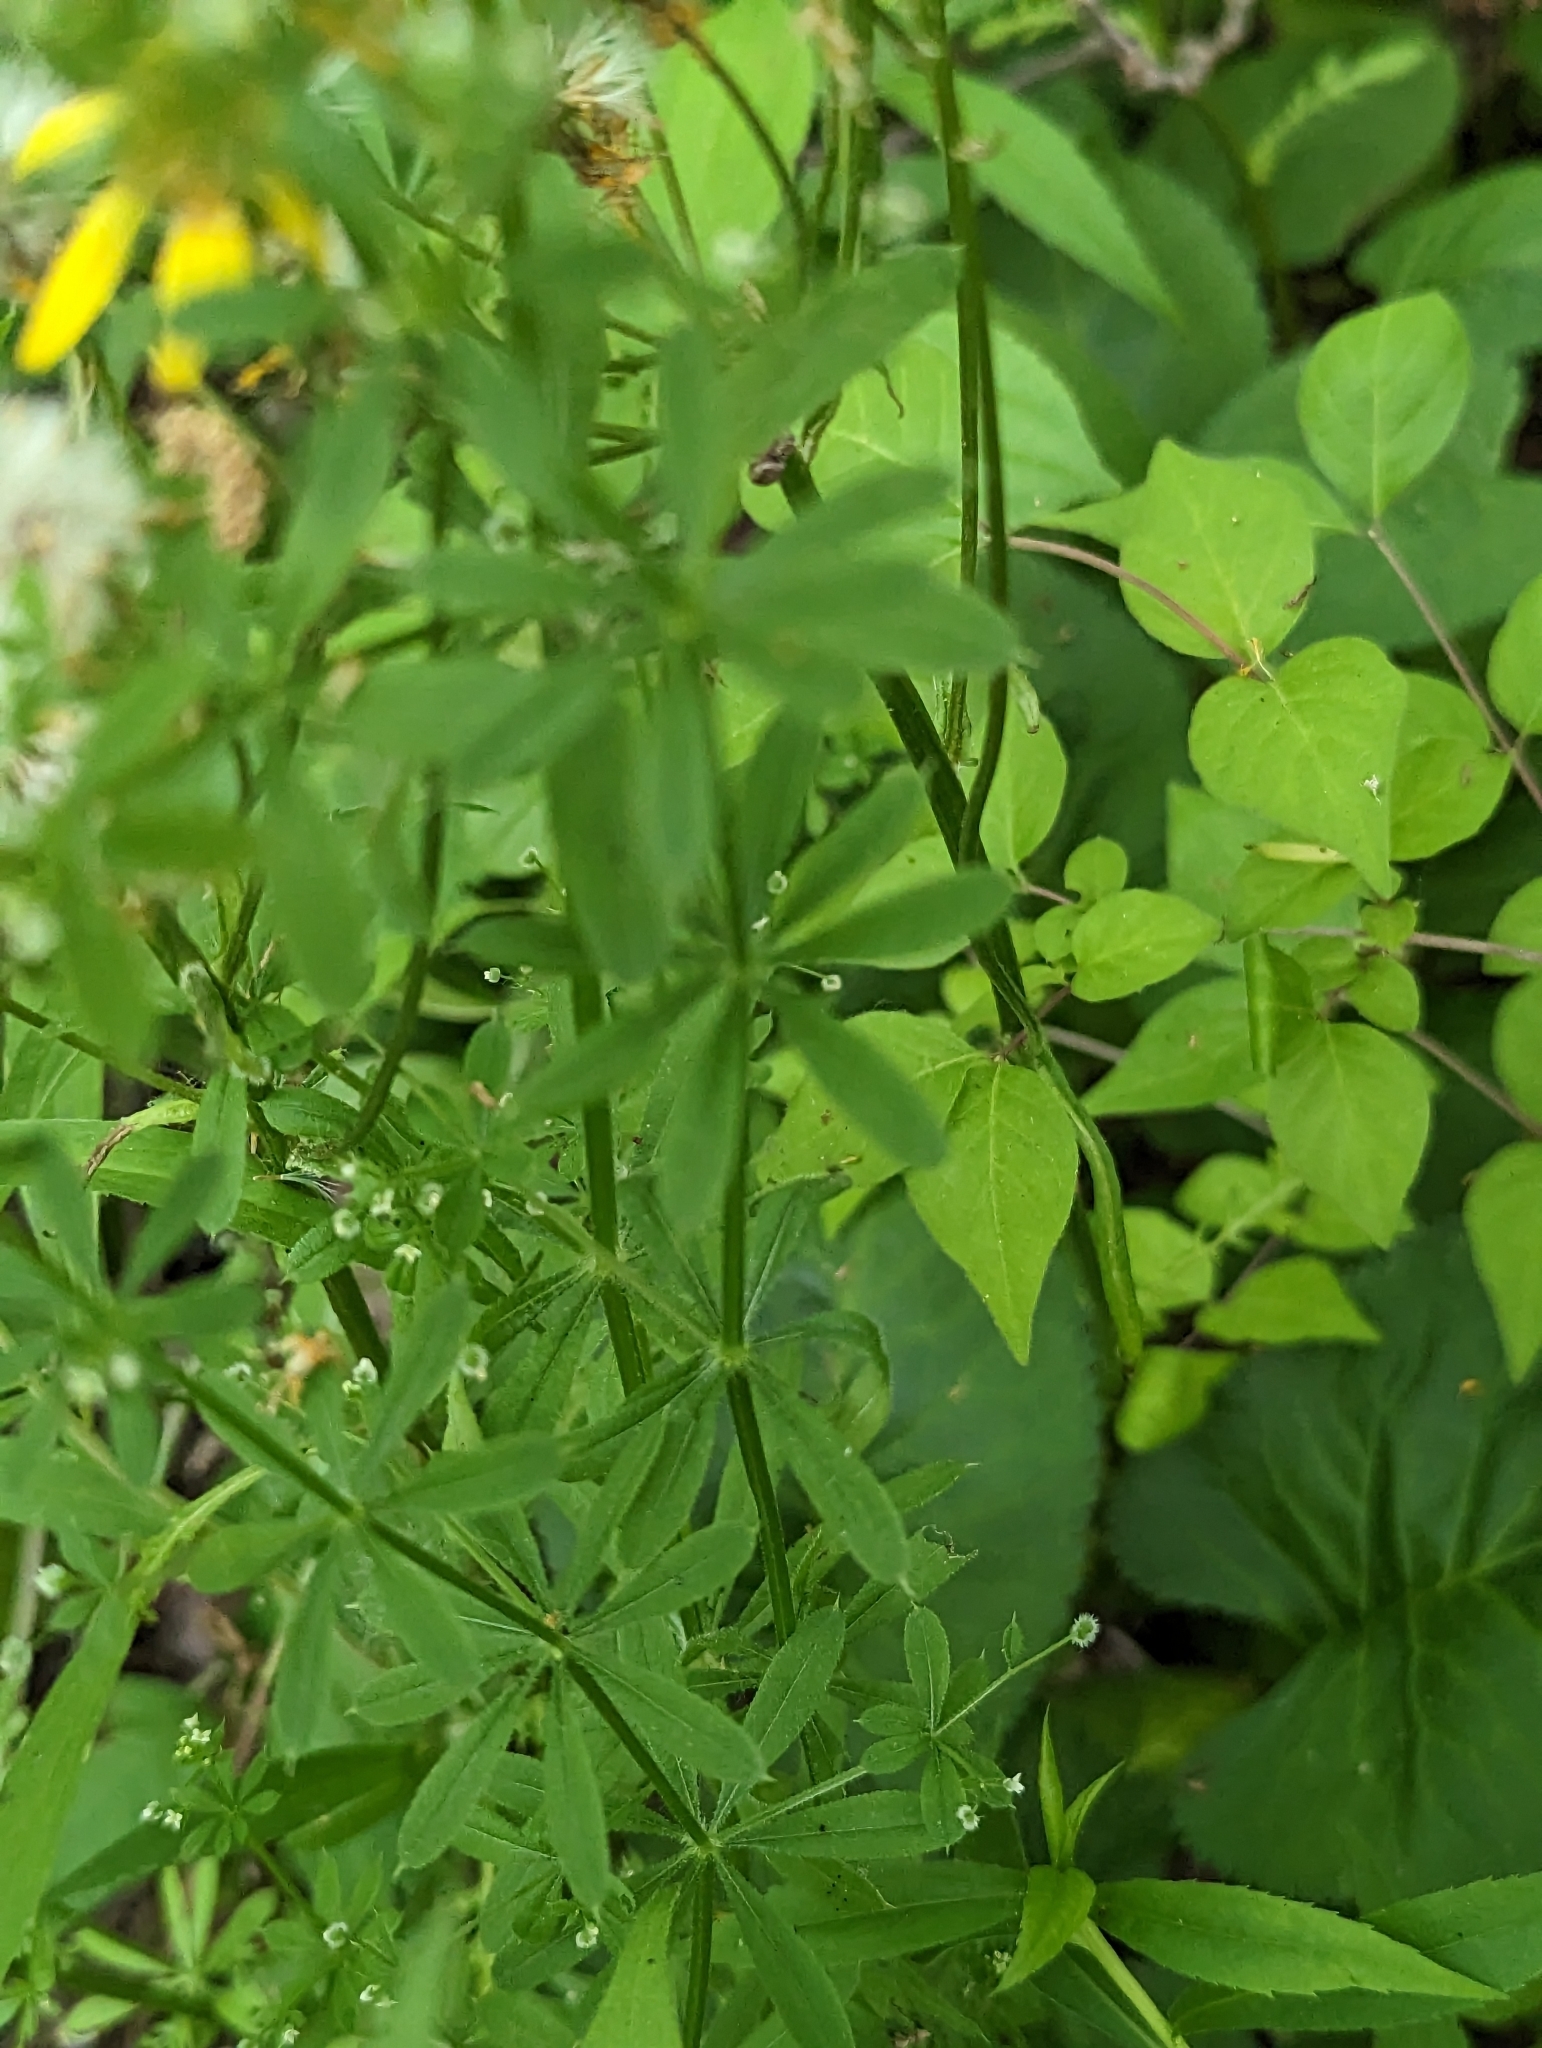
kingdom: Plantae
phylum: Tracheophyta
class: Magnoliopsida
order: Gentianales
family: Rubiaceae
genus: Galium
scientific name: Galium aparine
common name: Cleavers
